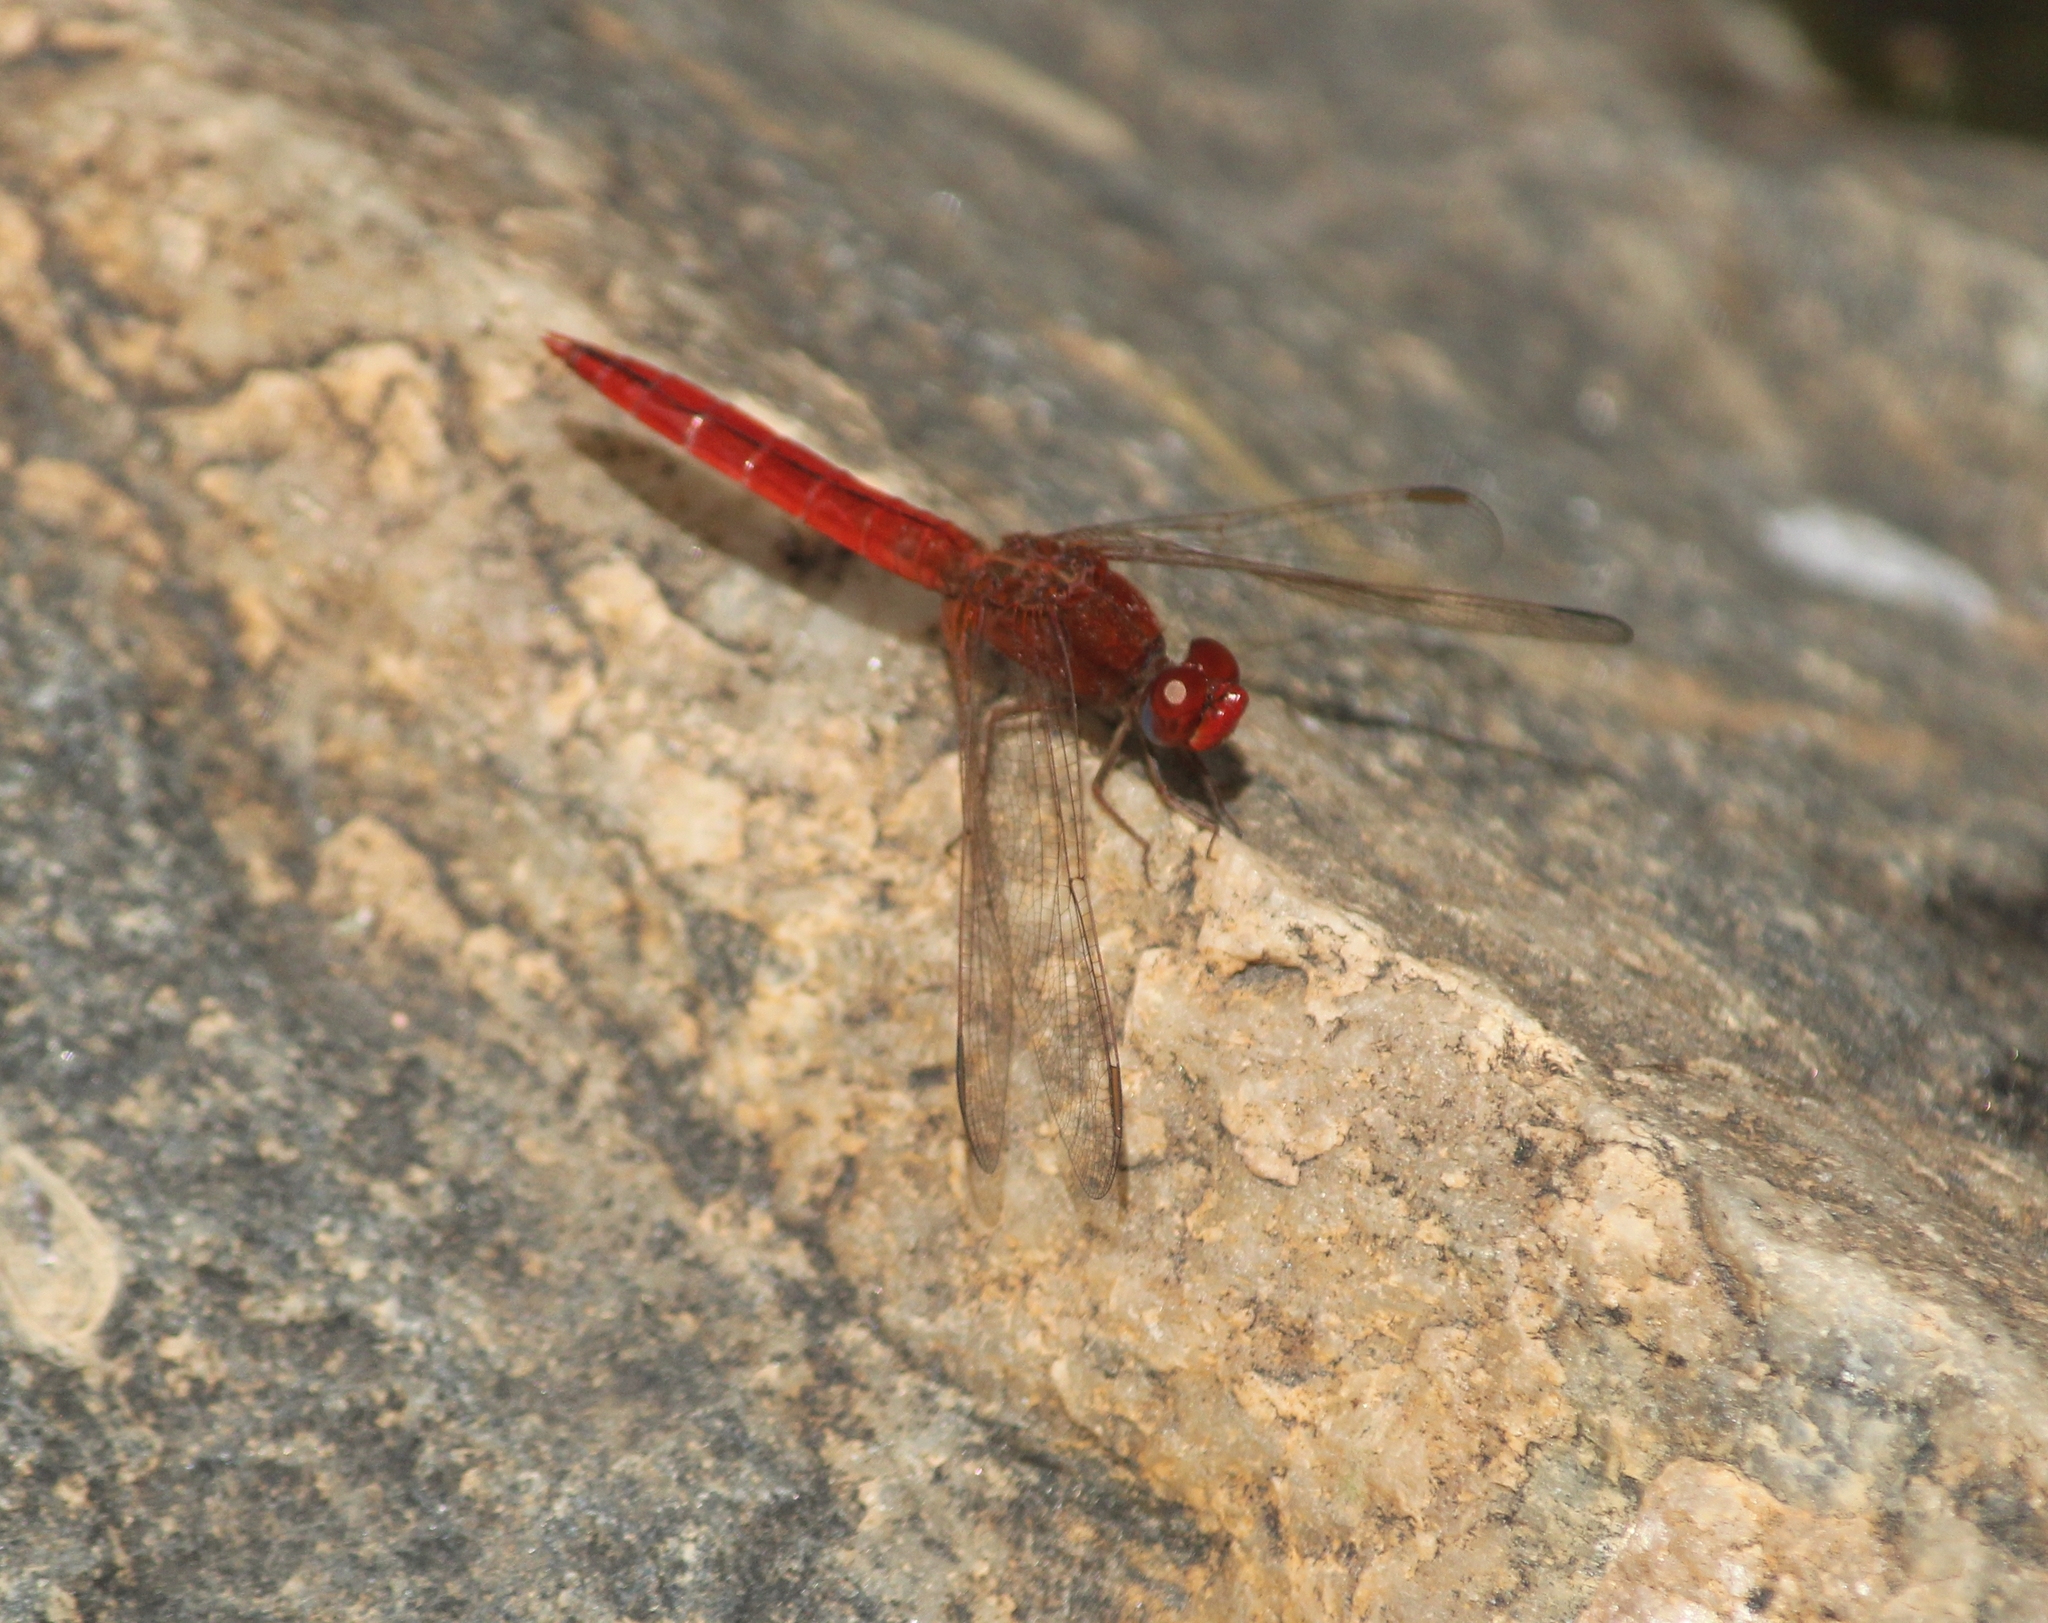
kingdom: Animalia
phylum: Arthropoda
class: Insecta
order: Odonata
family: Libellulidae
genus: Crocothemis
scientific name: Crocothemis servilia
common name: Scarlet skimmer
